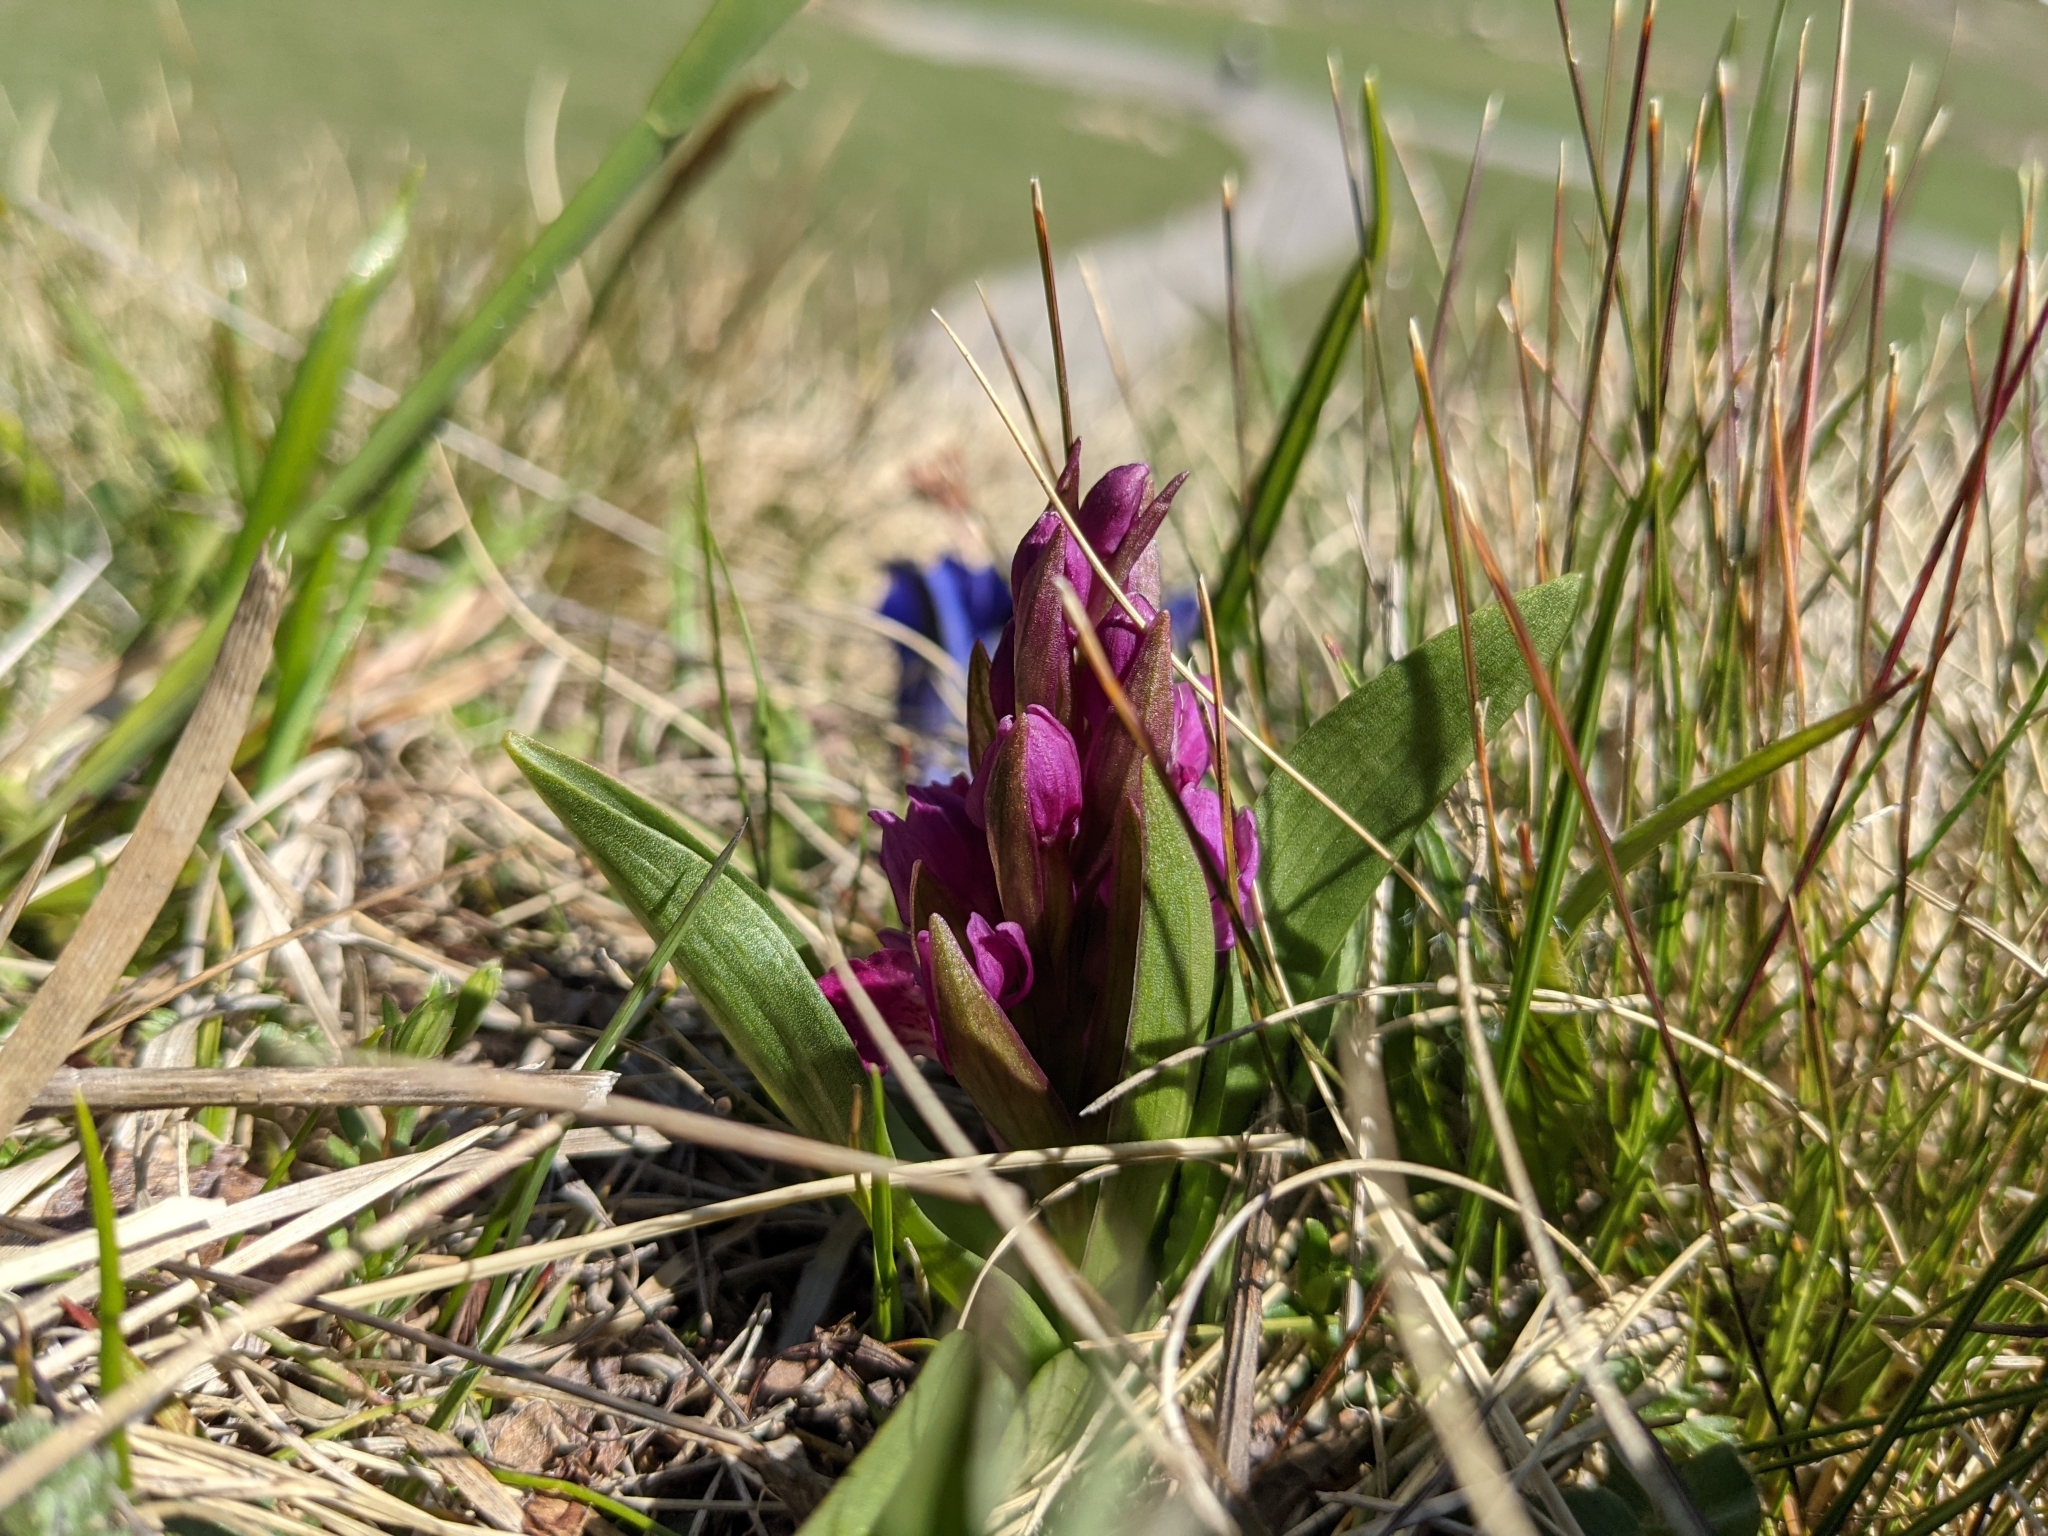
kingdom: Plantae
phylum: Tracheophyta
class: Liliopsida
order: Asparagales
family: Orchidaceae
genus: Dactylorhiza
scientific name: Dactylorhiza sambucina
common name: Elder-flowered orchid
